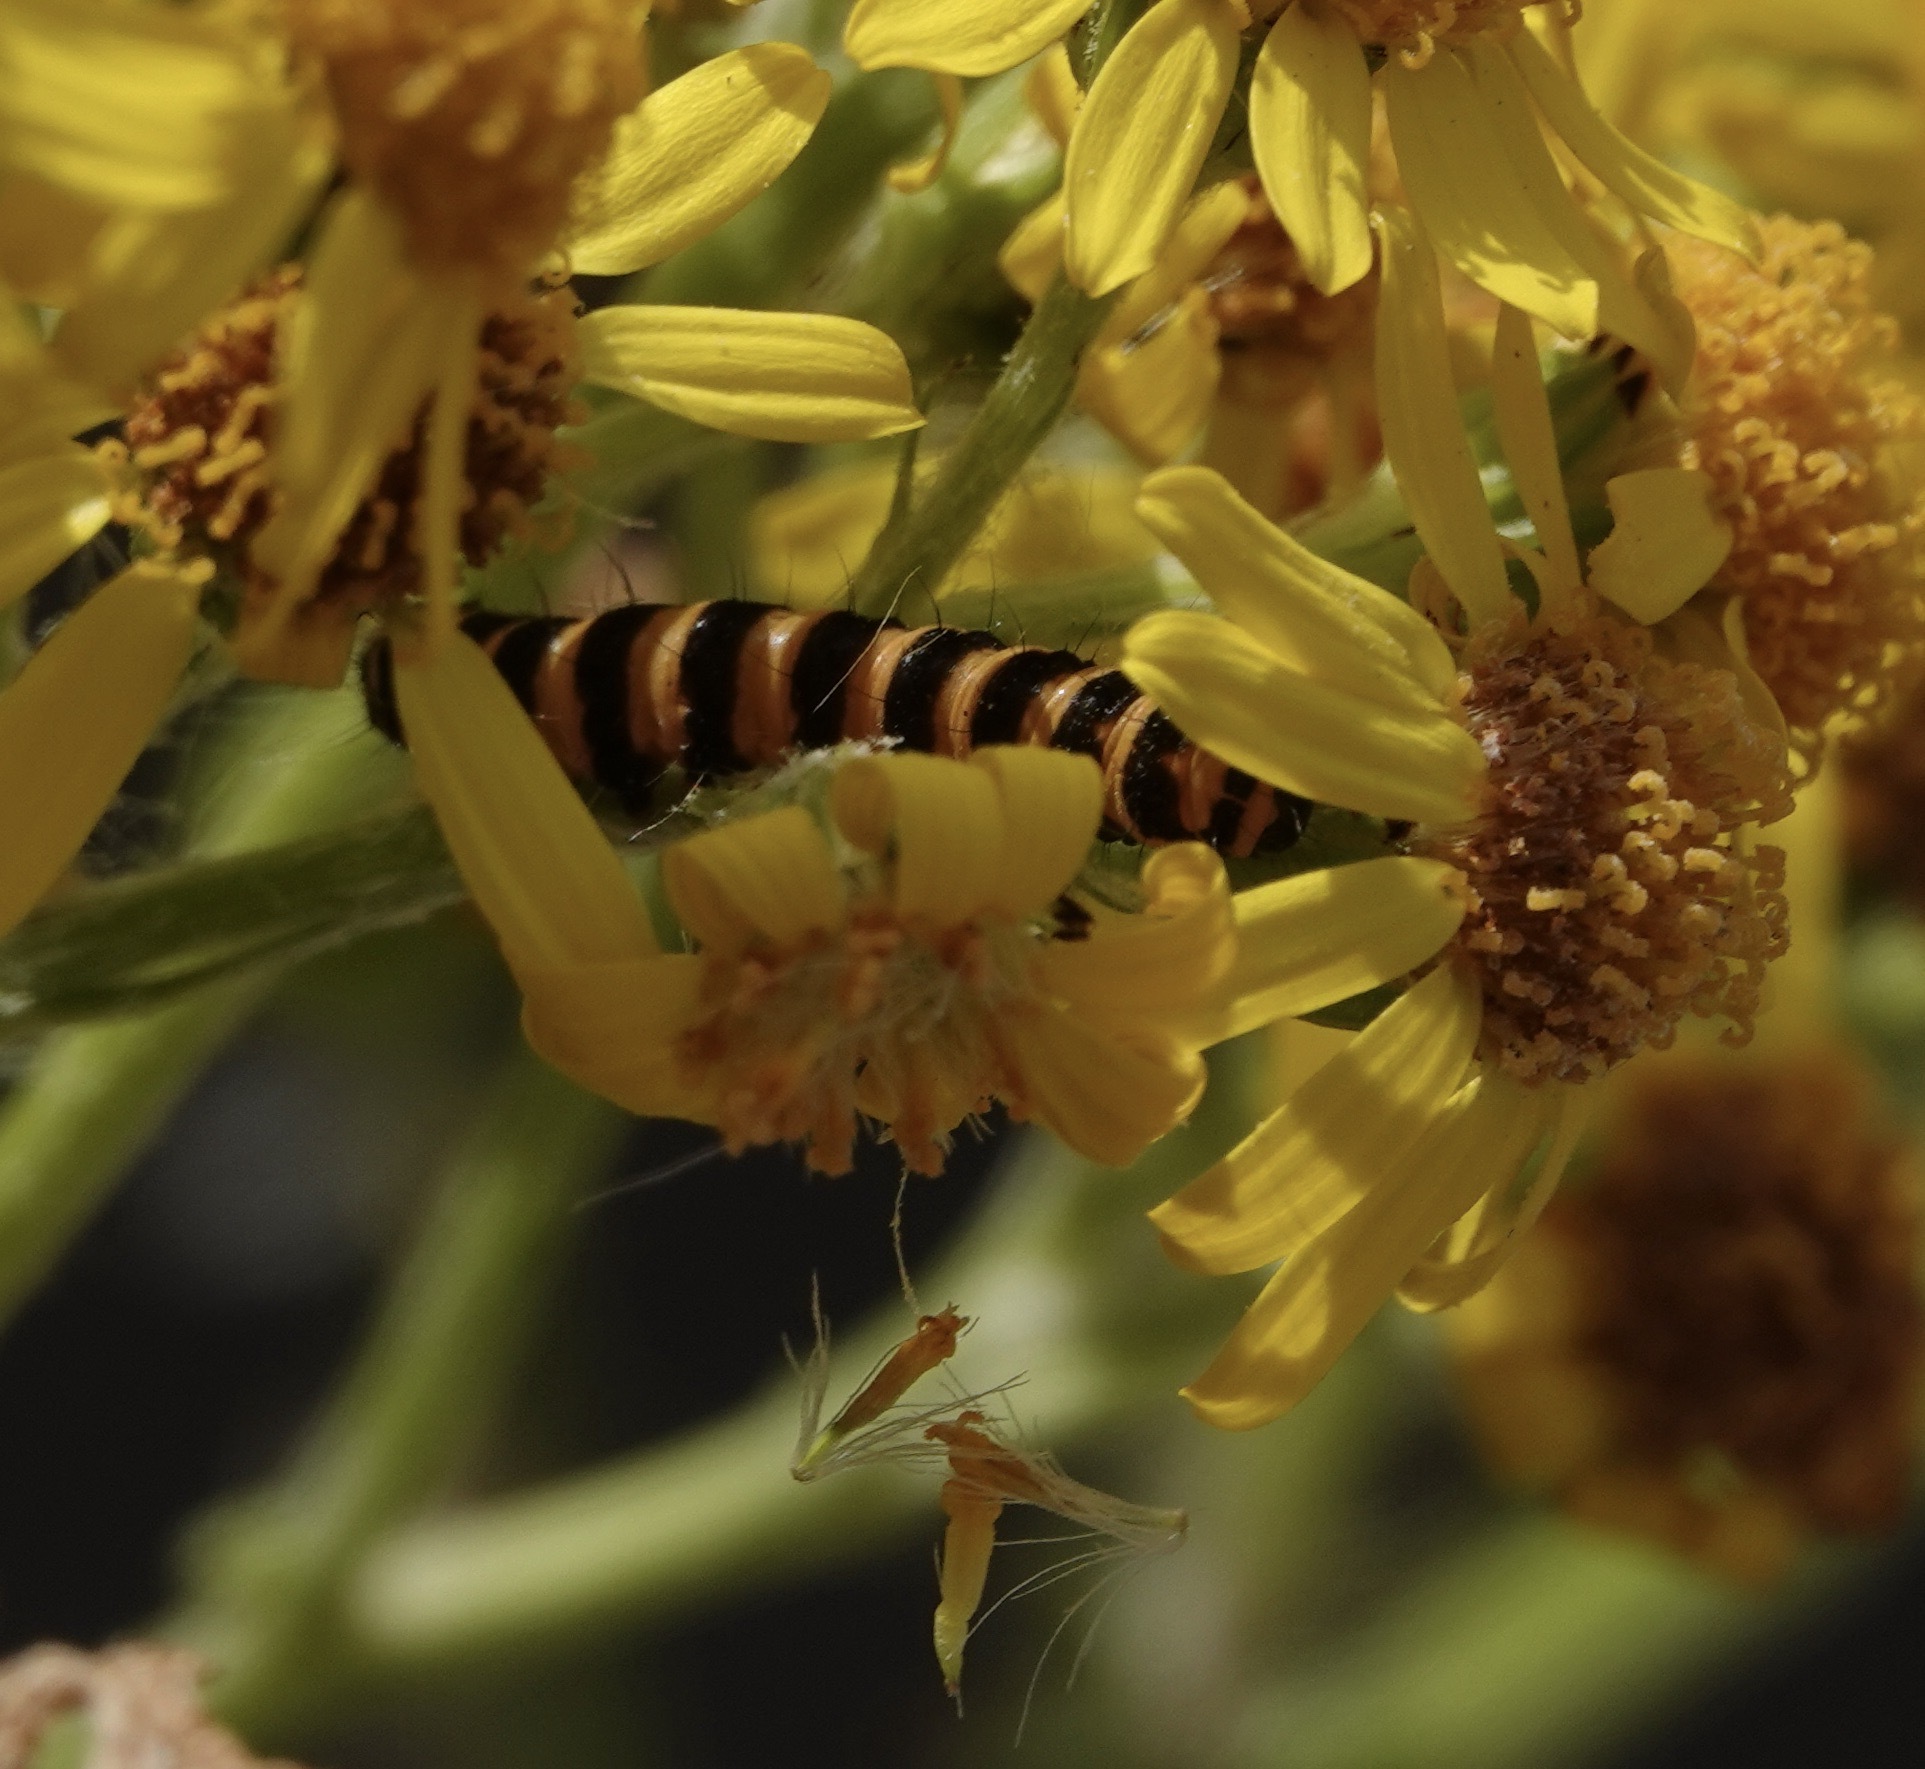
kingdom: Animalia
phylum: Arthropoda
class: Insecta
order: Lepidoptera
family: Erebidae
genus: Tyria
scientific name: Tyria jacobaeae
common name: Cinnabar
